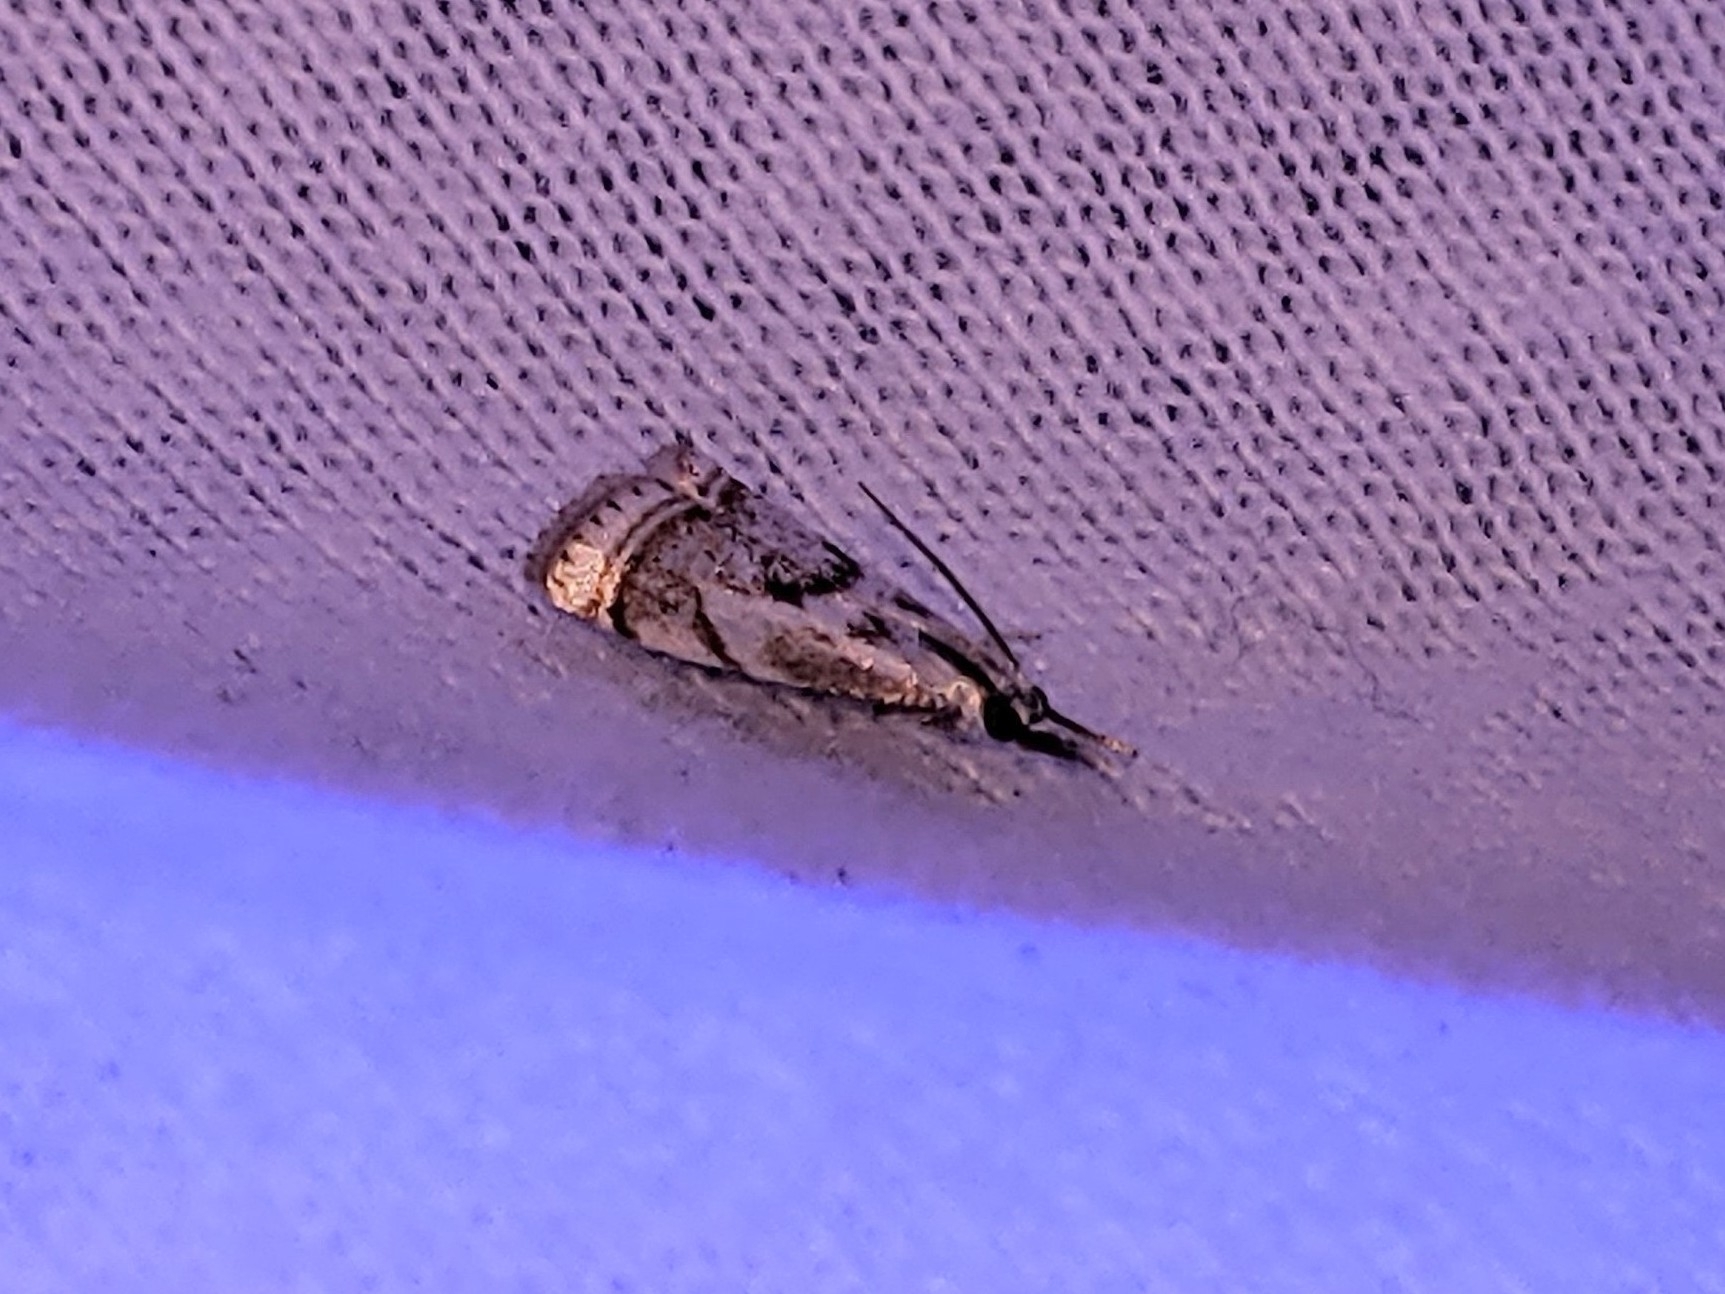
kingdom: Animalia
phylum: Arthropoda
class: Insecta
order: Lepidoptera
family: Crambidae
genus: Microcrambus
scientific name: Microcrambus elegans
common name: Elegant grass-veneer
